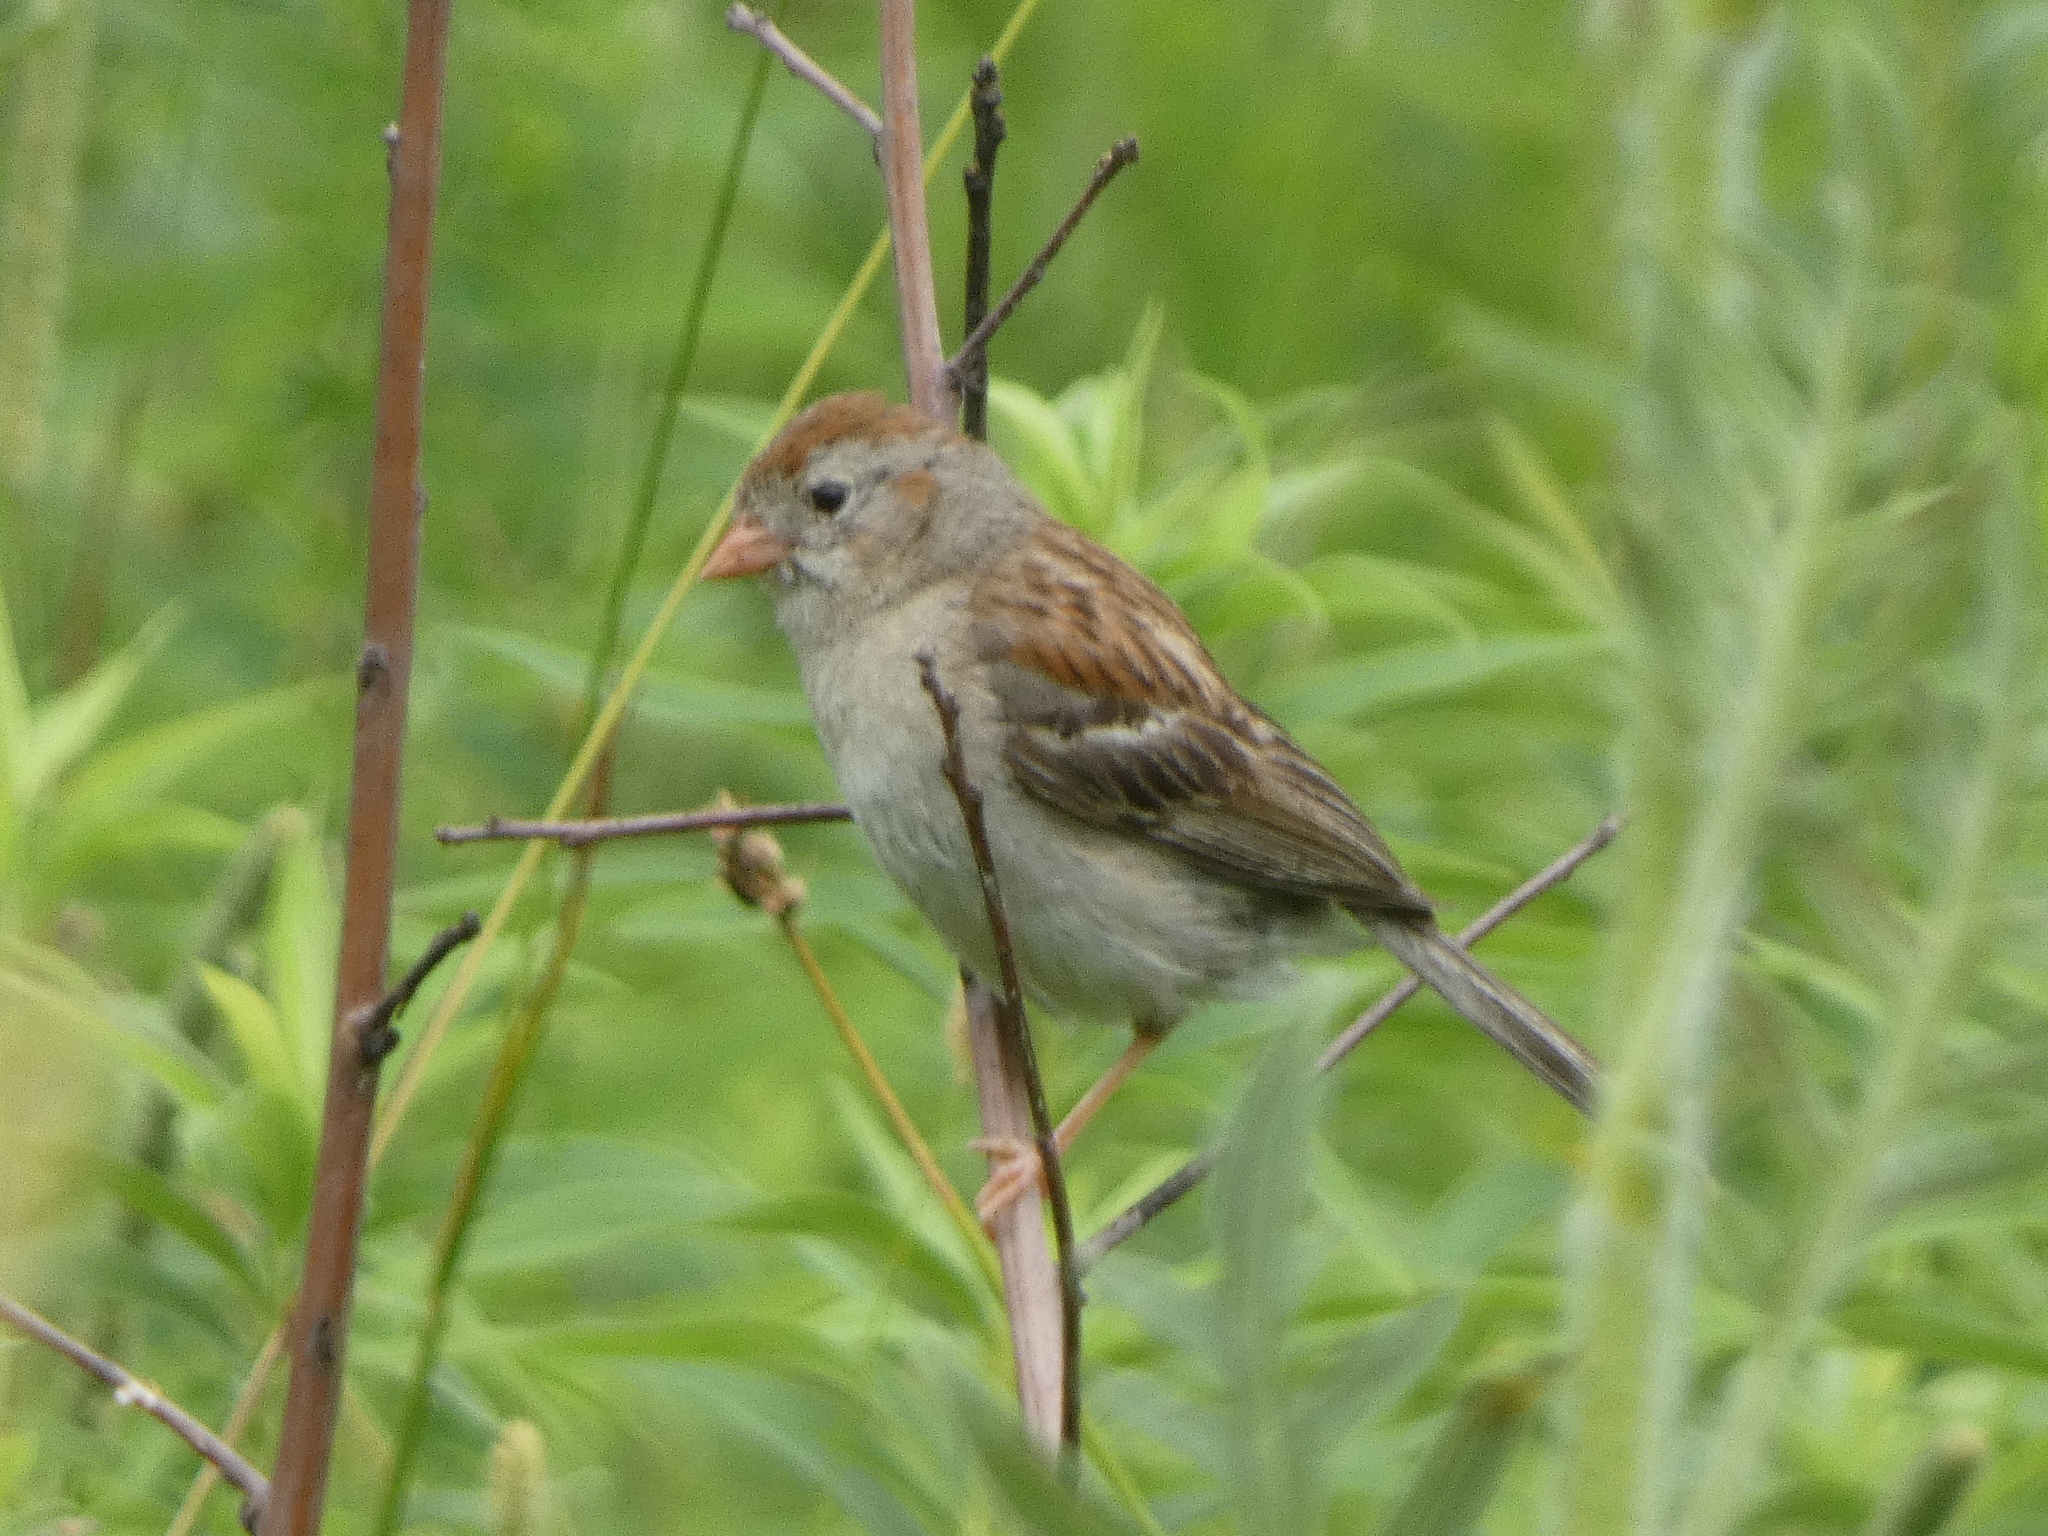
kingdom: Animalia
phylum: Chordata
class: Aves
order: Passeriformes
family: Passerellidae
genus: Spizella
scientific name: Spizella pusilla
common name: Field sparrow
